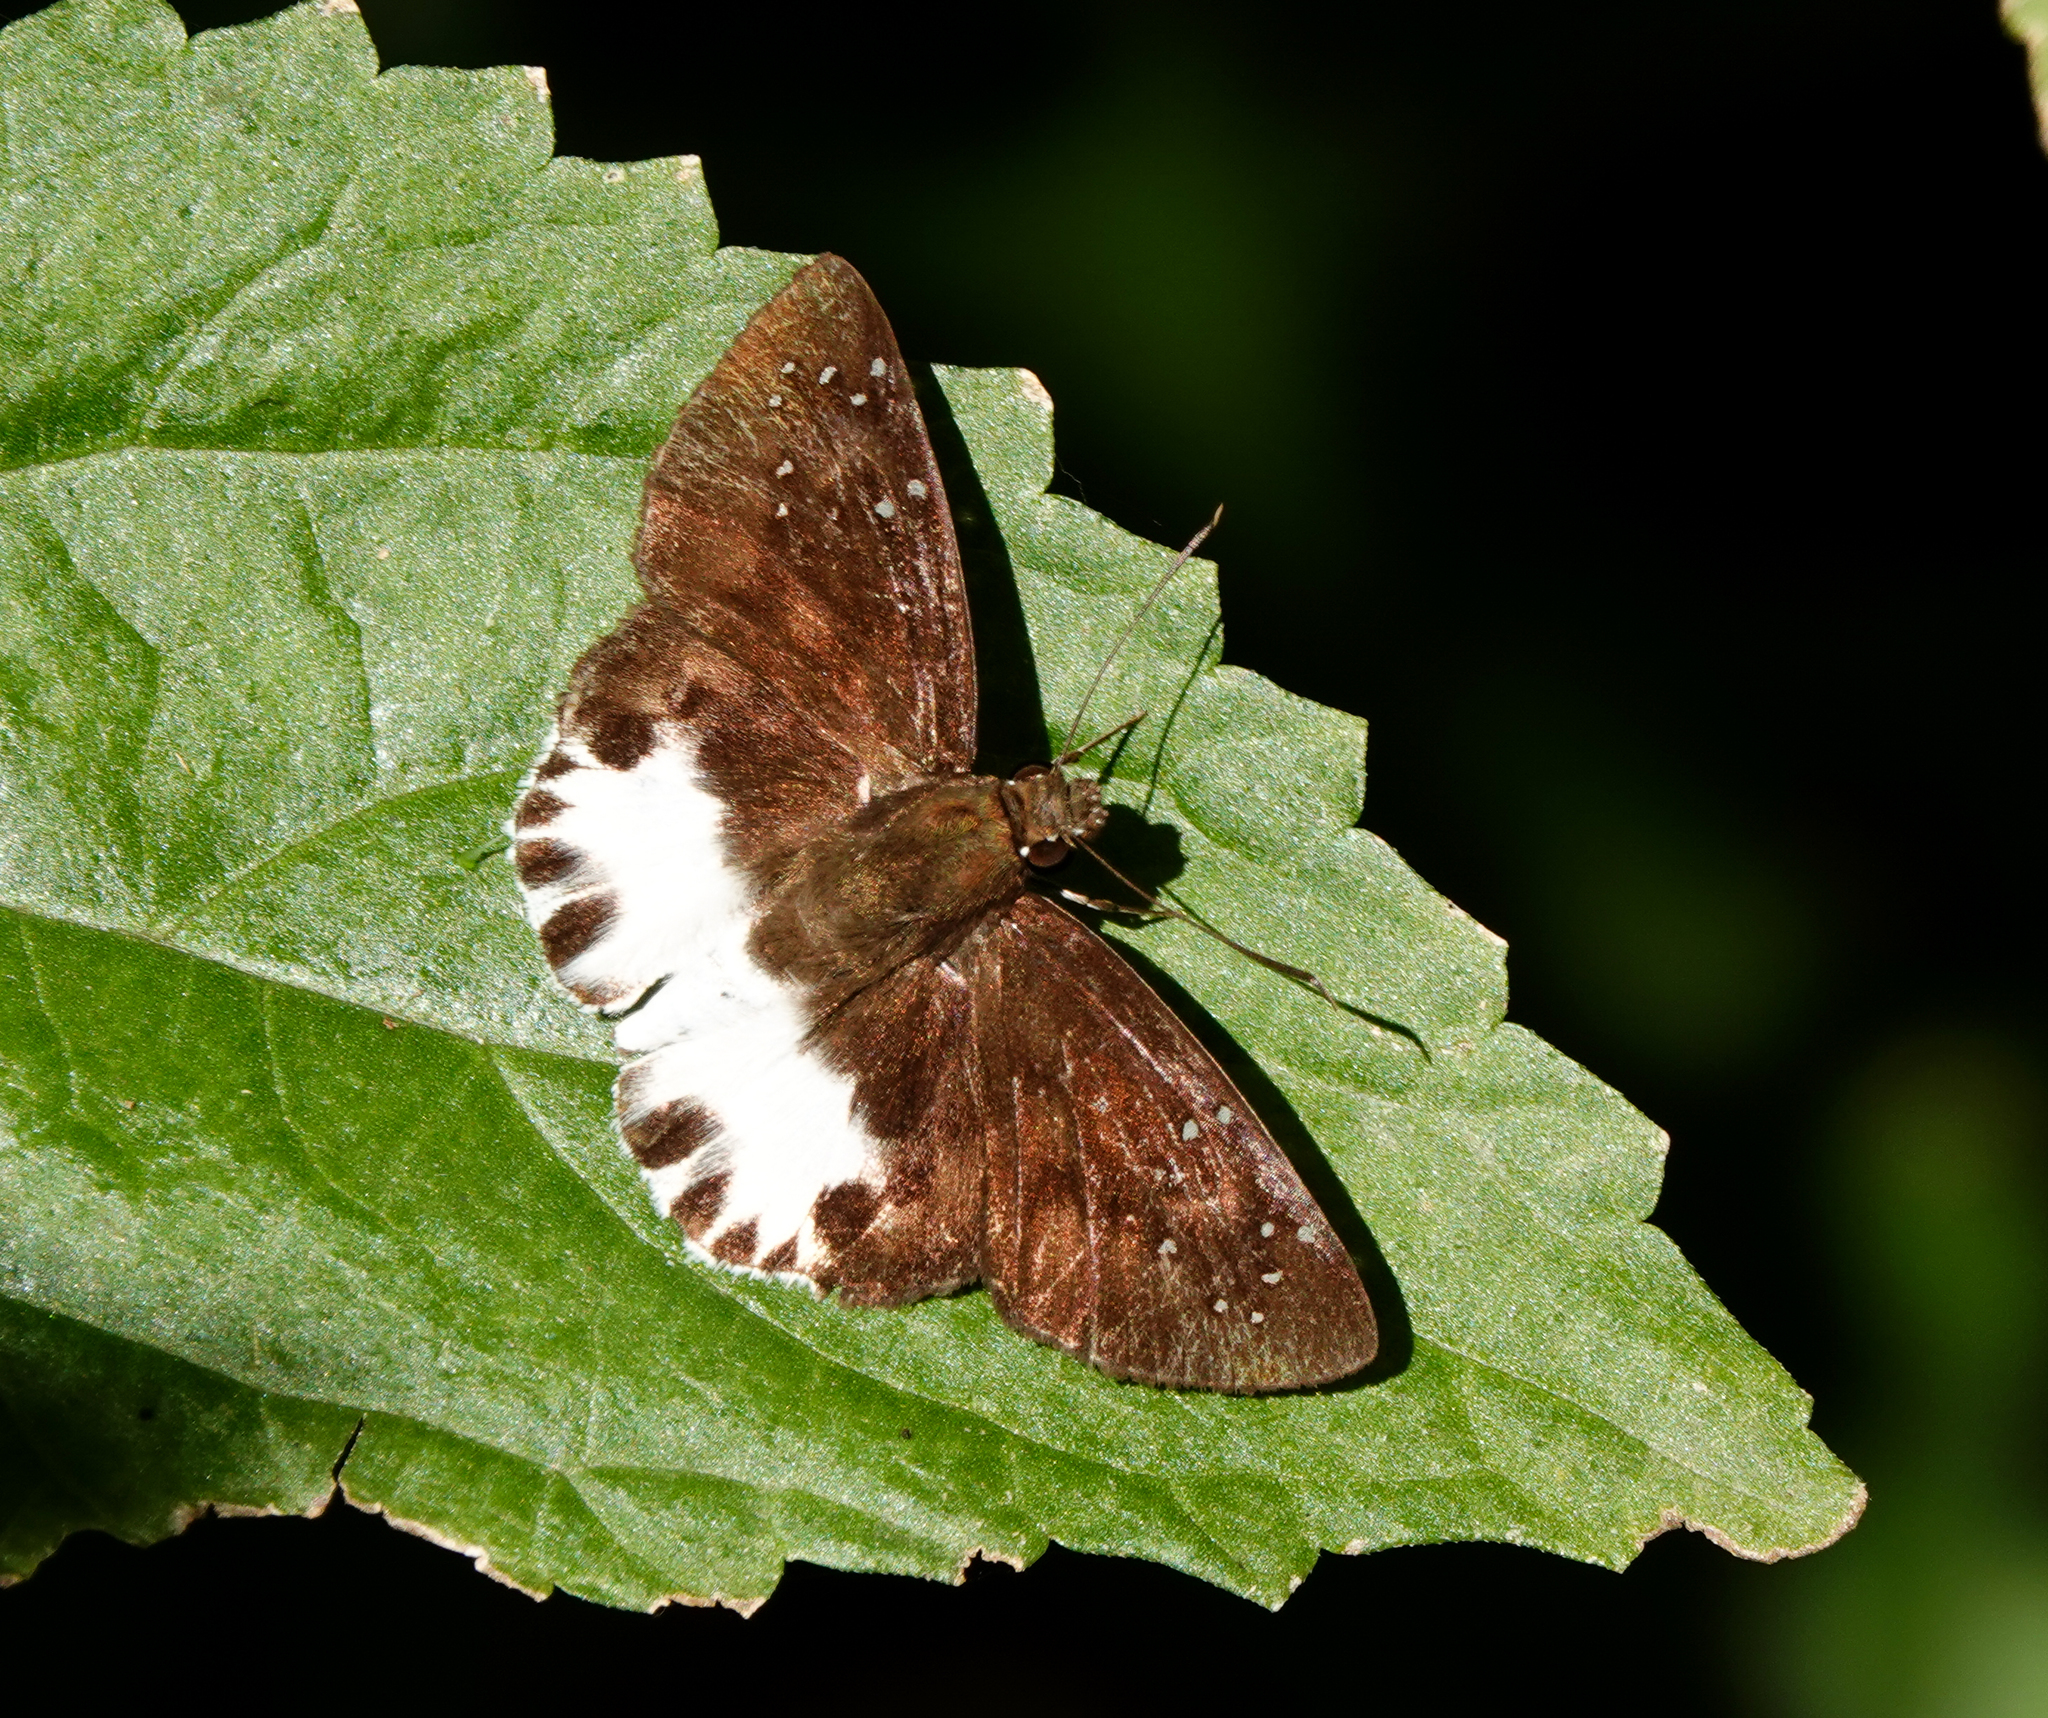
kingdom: Animalia
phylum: Arthropoda
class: Insecta
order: Lepidoptera
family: Hesperiidae
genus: Tagiades
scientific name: Tagiades litigiosa
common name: Water snow flat
